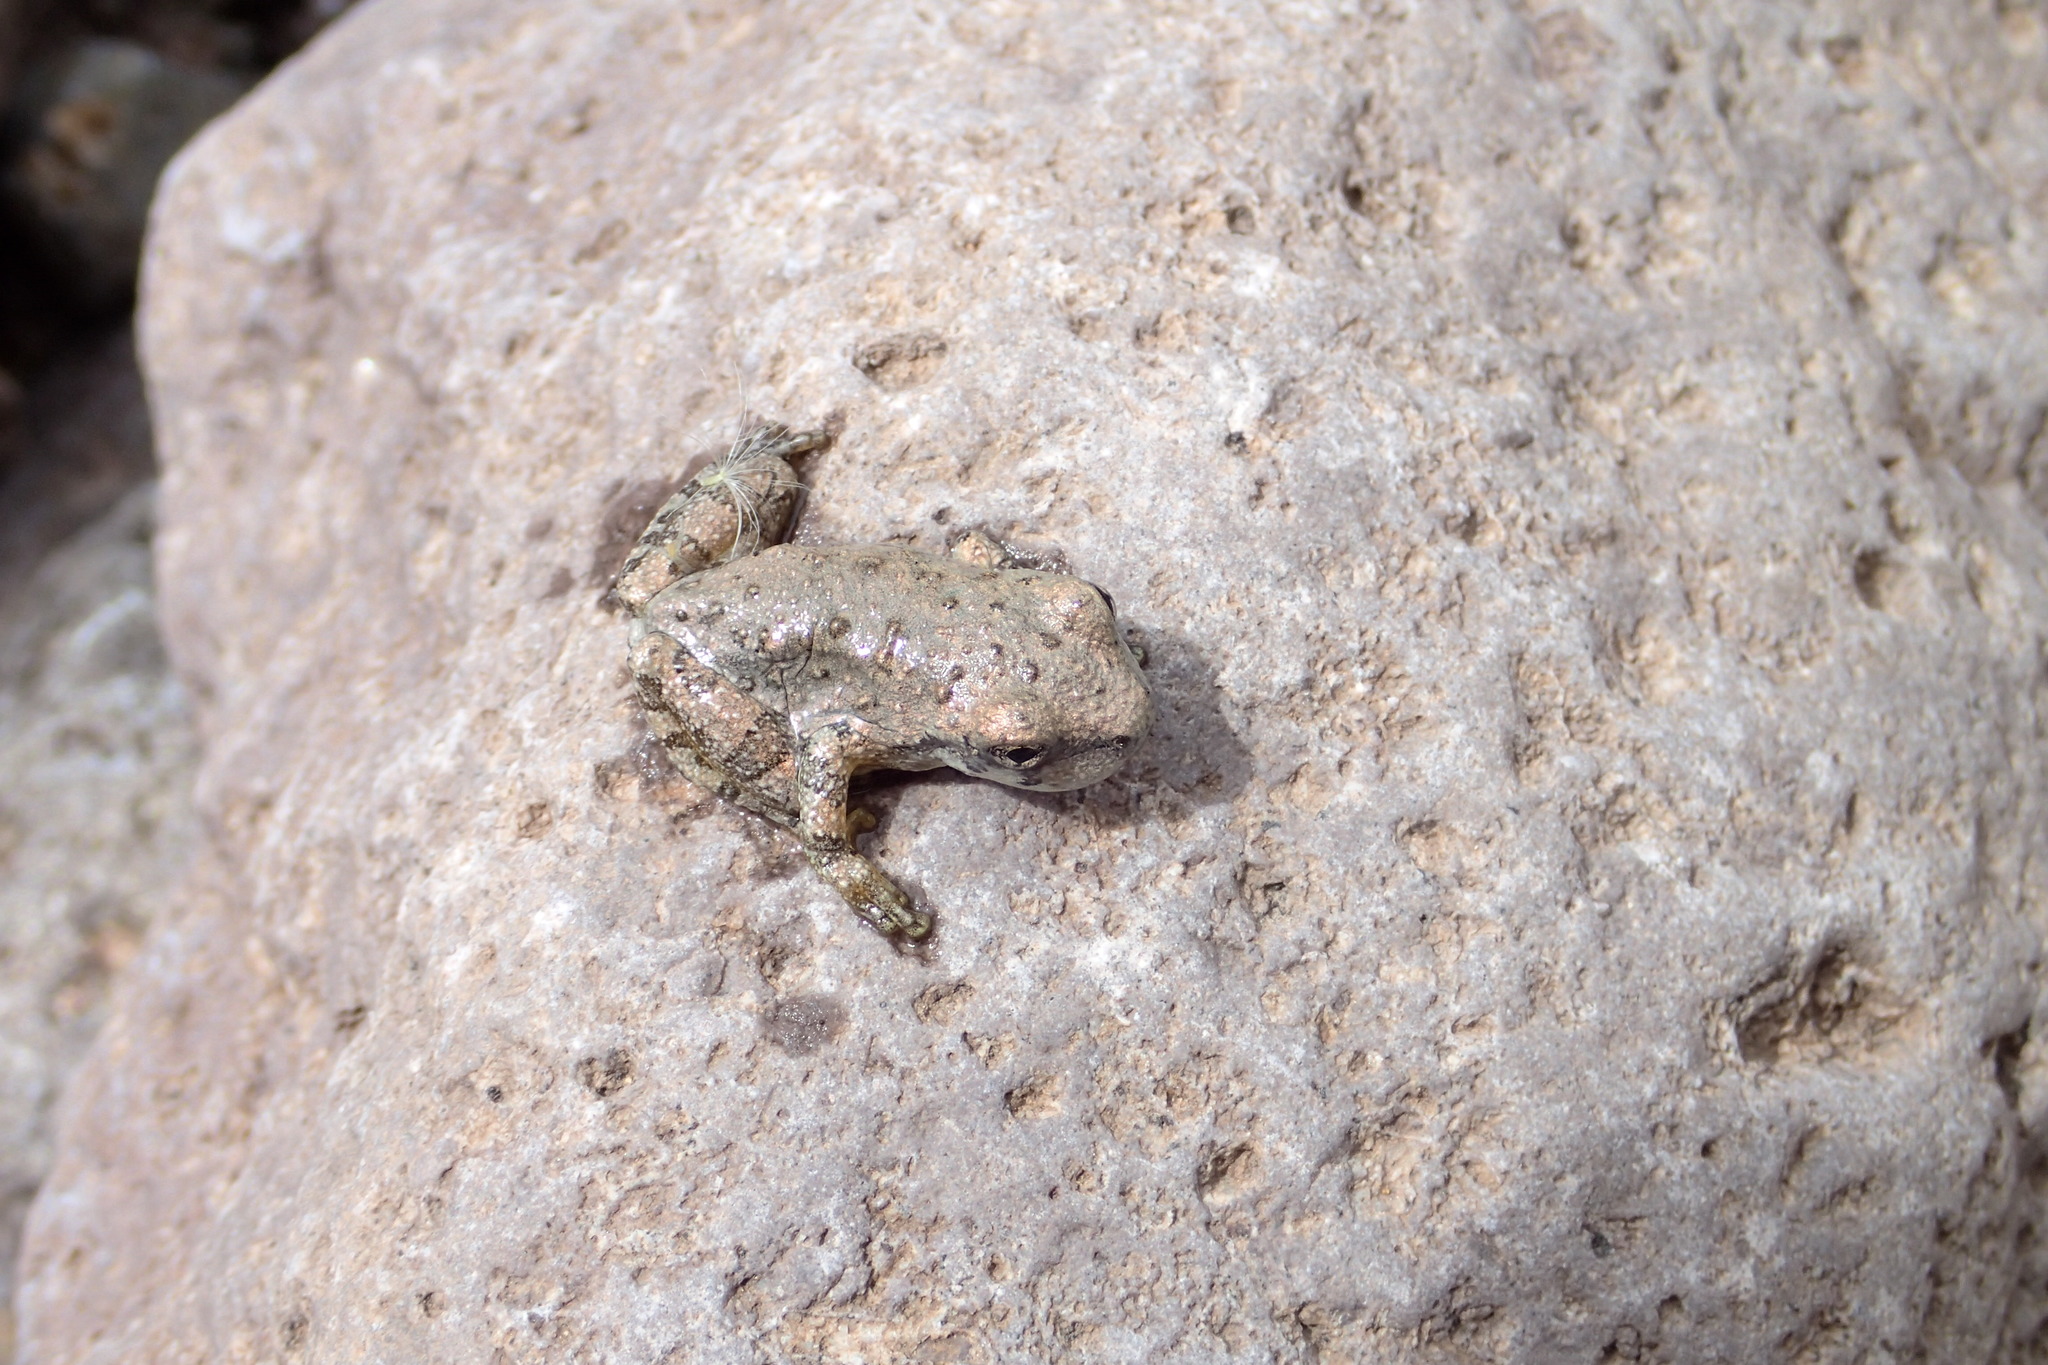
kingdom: Animalia
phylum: Chordata
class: Amphibia
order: Anura
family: Hylidae
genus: Dryophytes
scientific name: Dryophytes arenicolor
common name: Canyon treefrog
